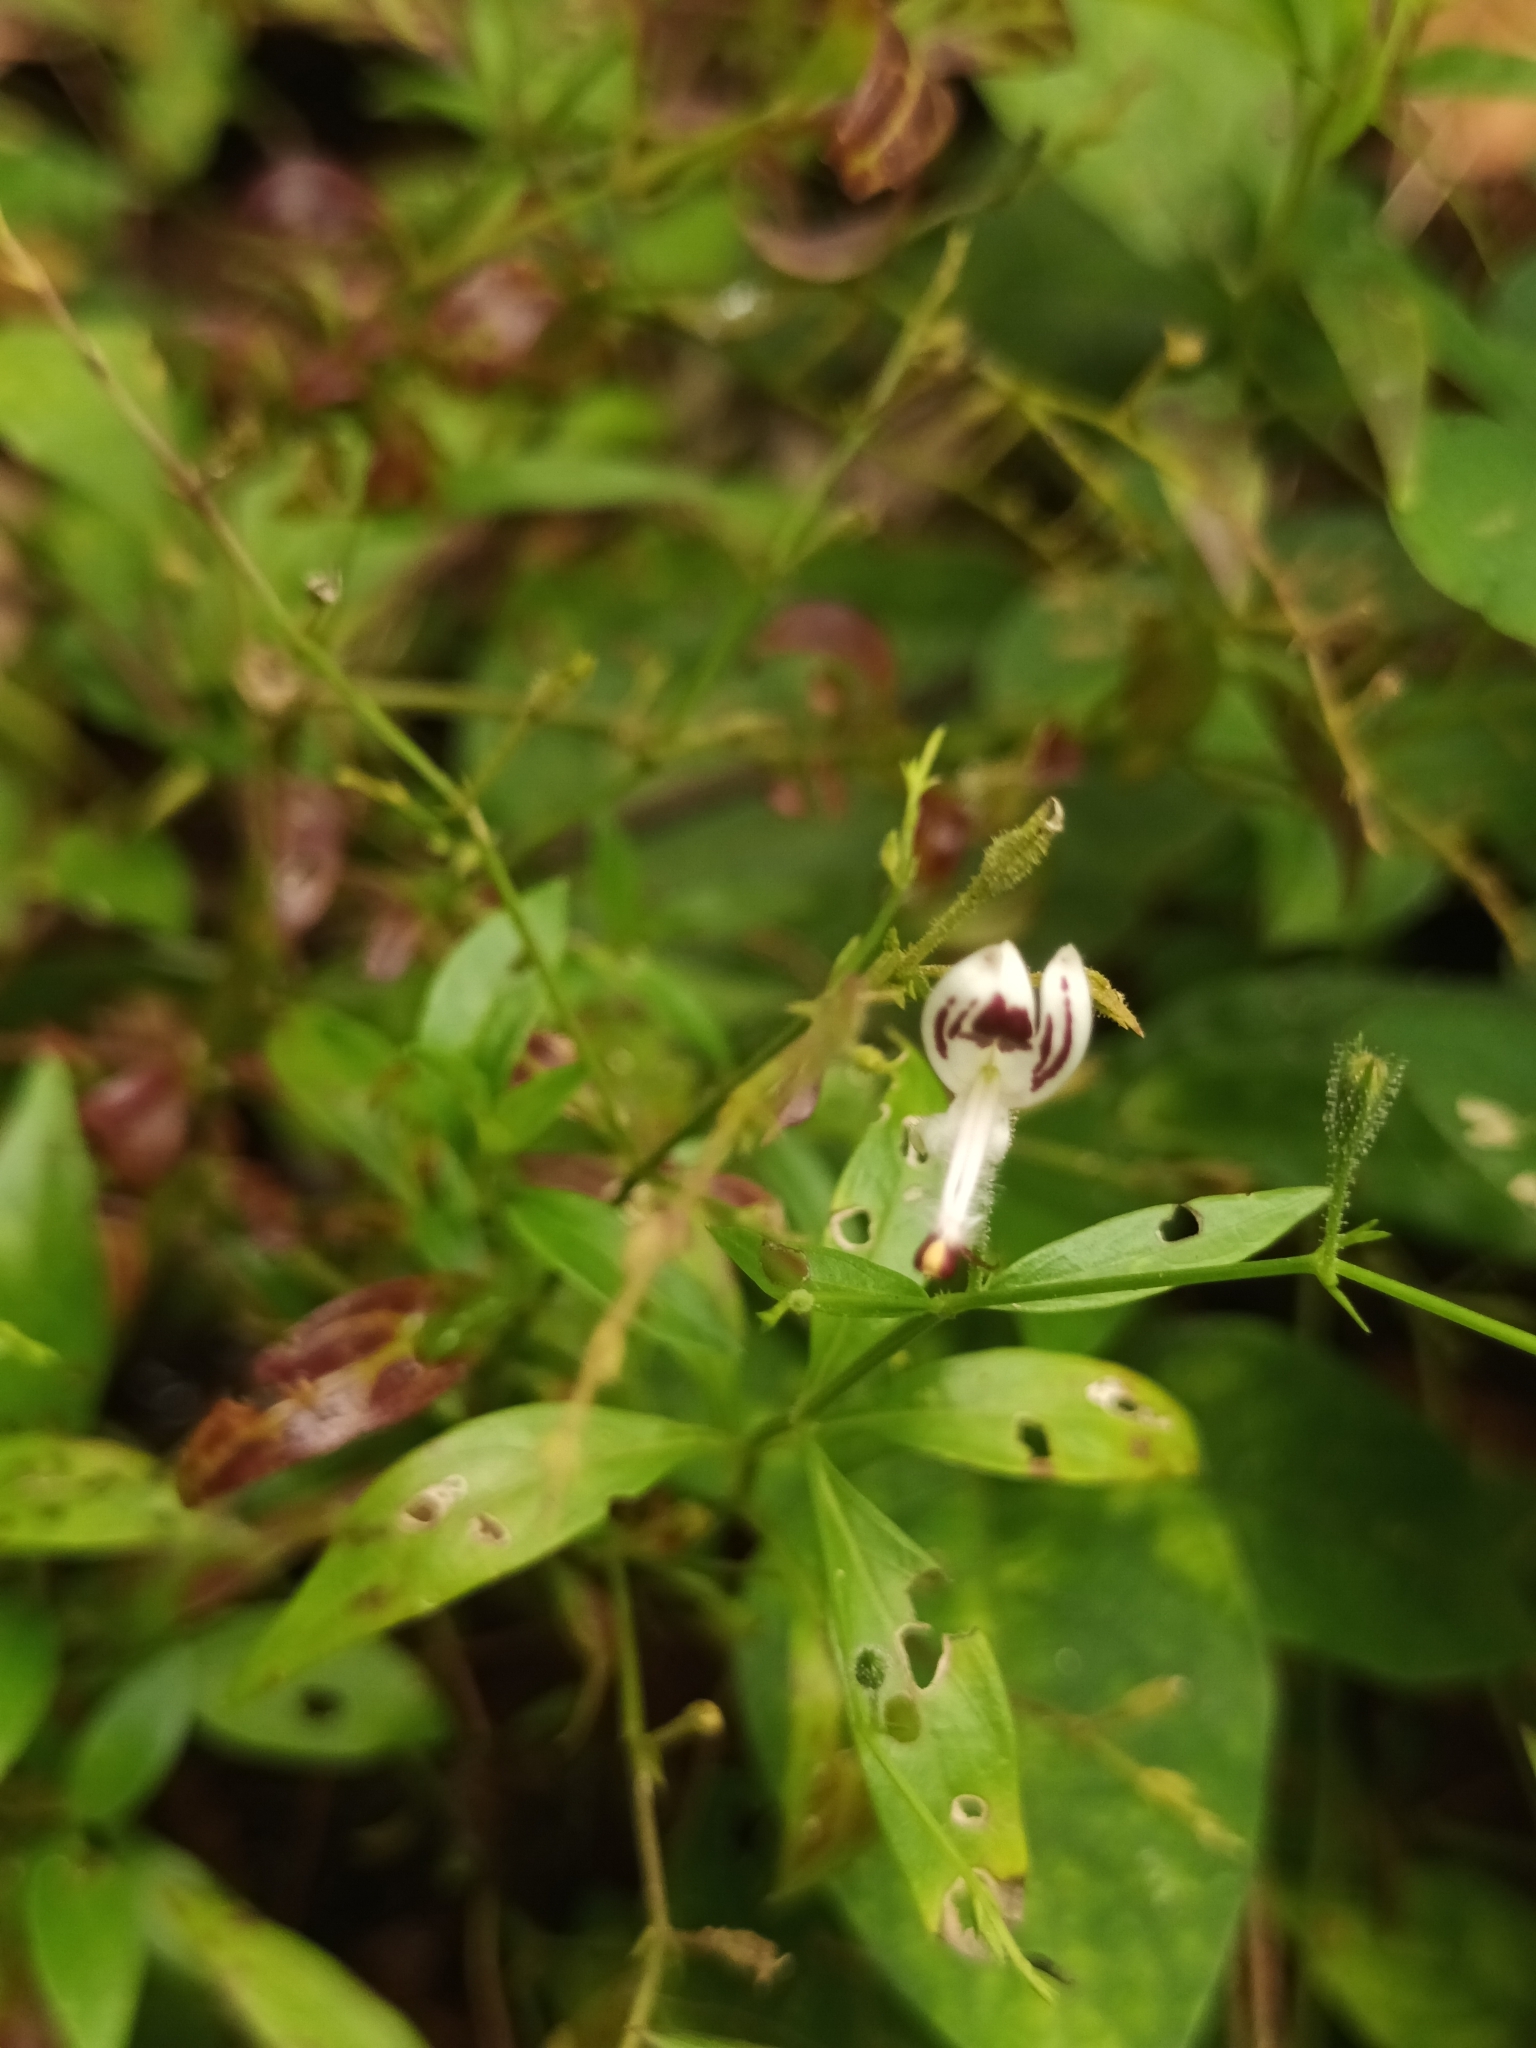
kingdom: Plantae
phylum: Tracheophyta
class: Magnoliopsida
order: Lamiales
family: Acanthaceae
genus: Andrographis
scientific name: Andrographis paniculata
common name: Green chireta
